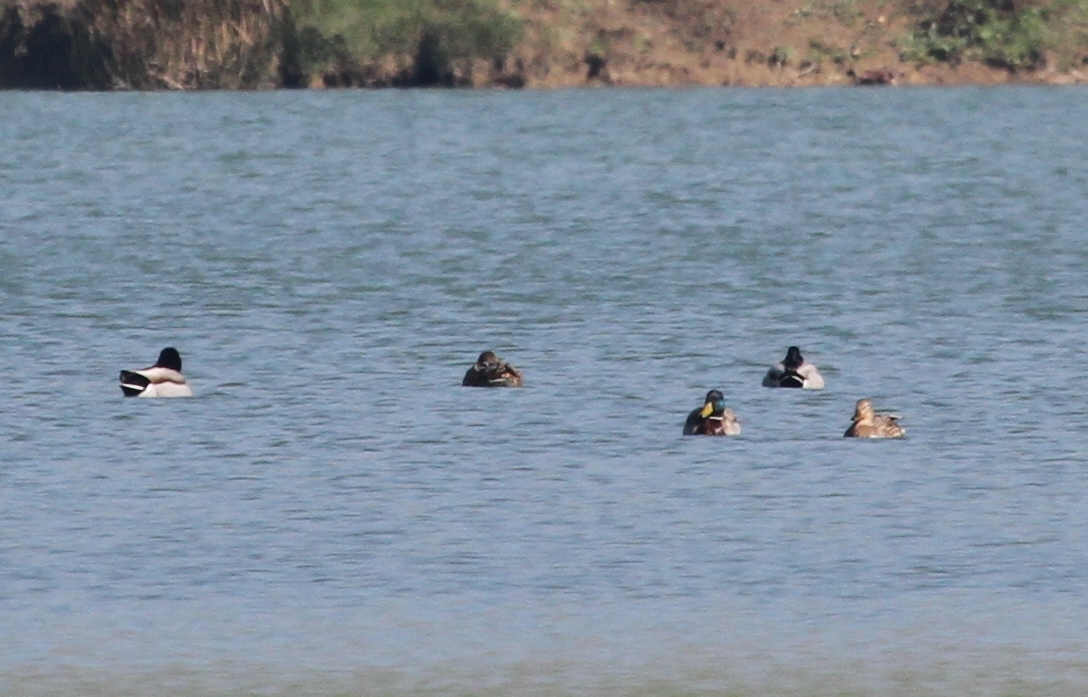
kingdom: Animalia
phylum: Chordata
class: Aves
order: Anseriformes
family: Anatidae
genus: Anas
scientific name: Anas platyrhynchos
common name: Mallard
